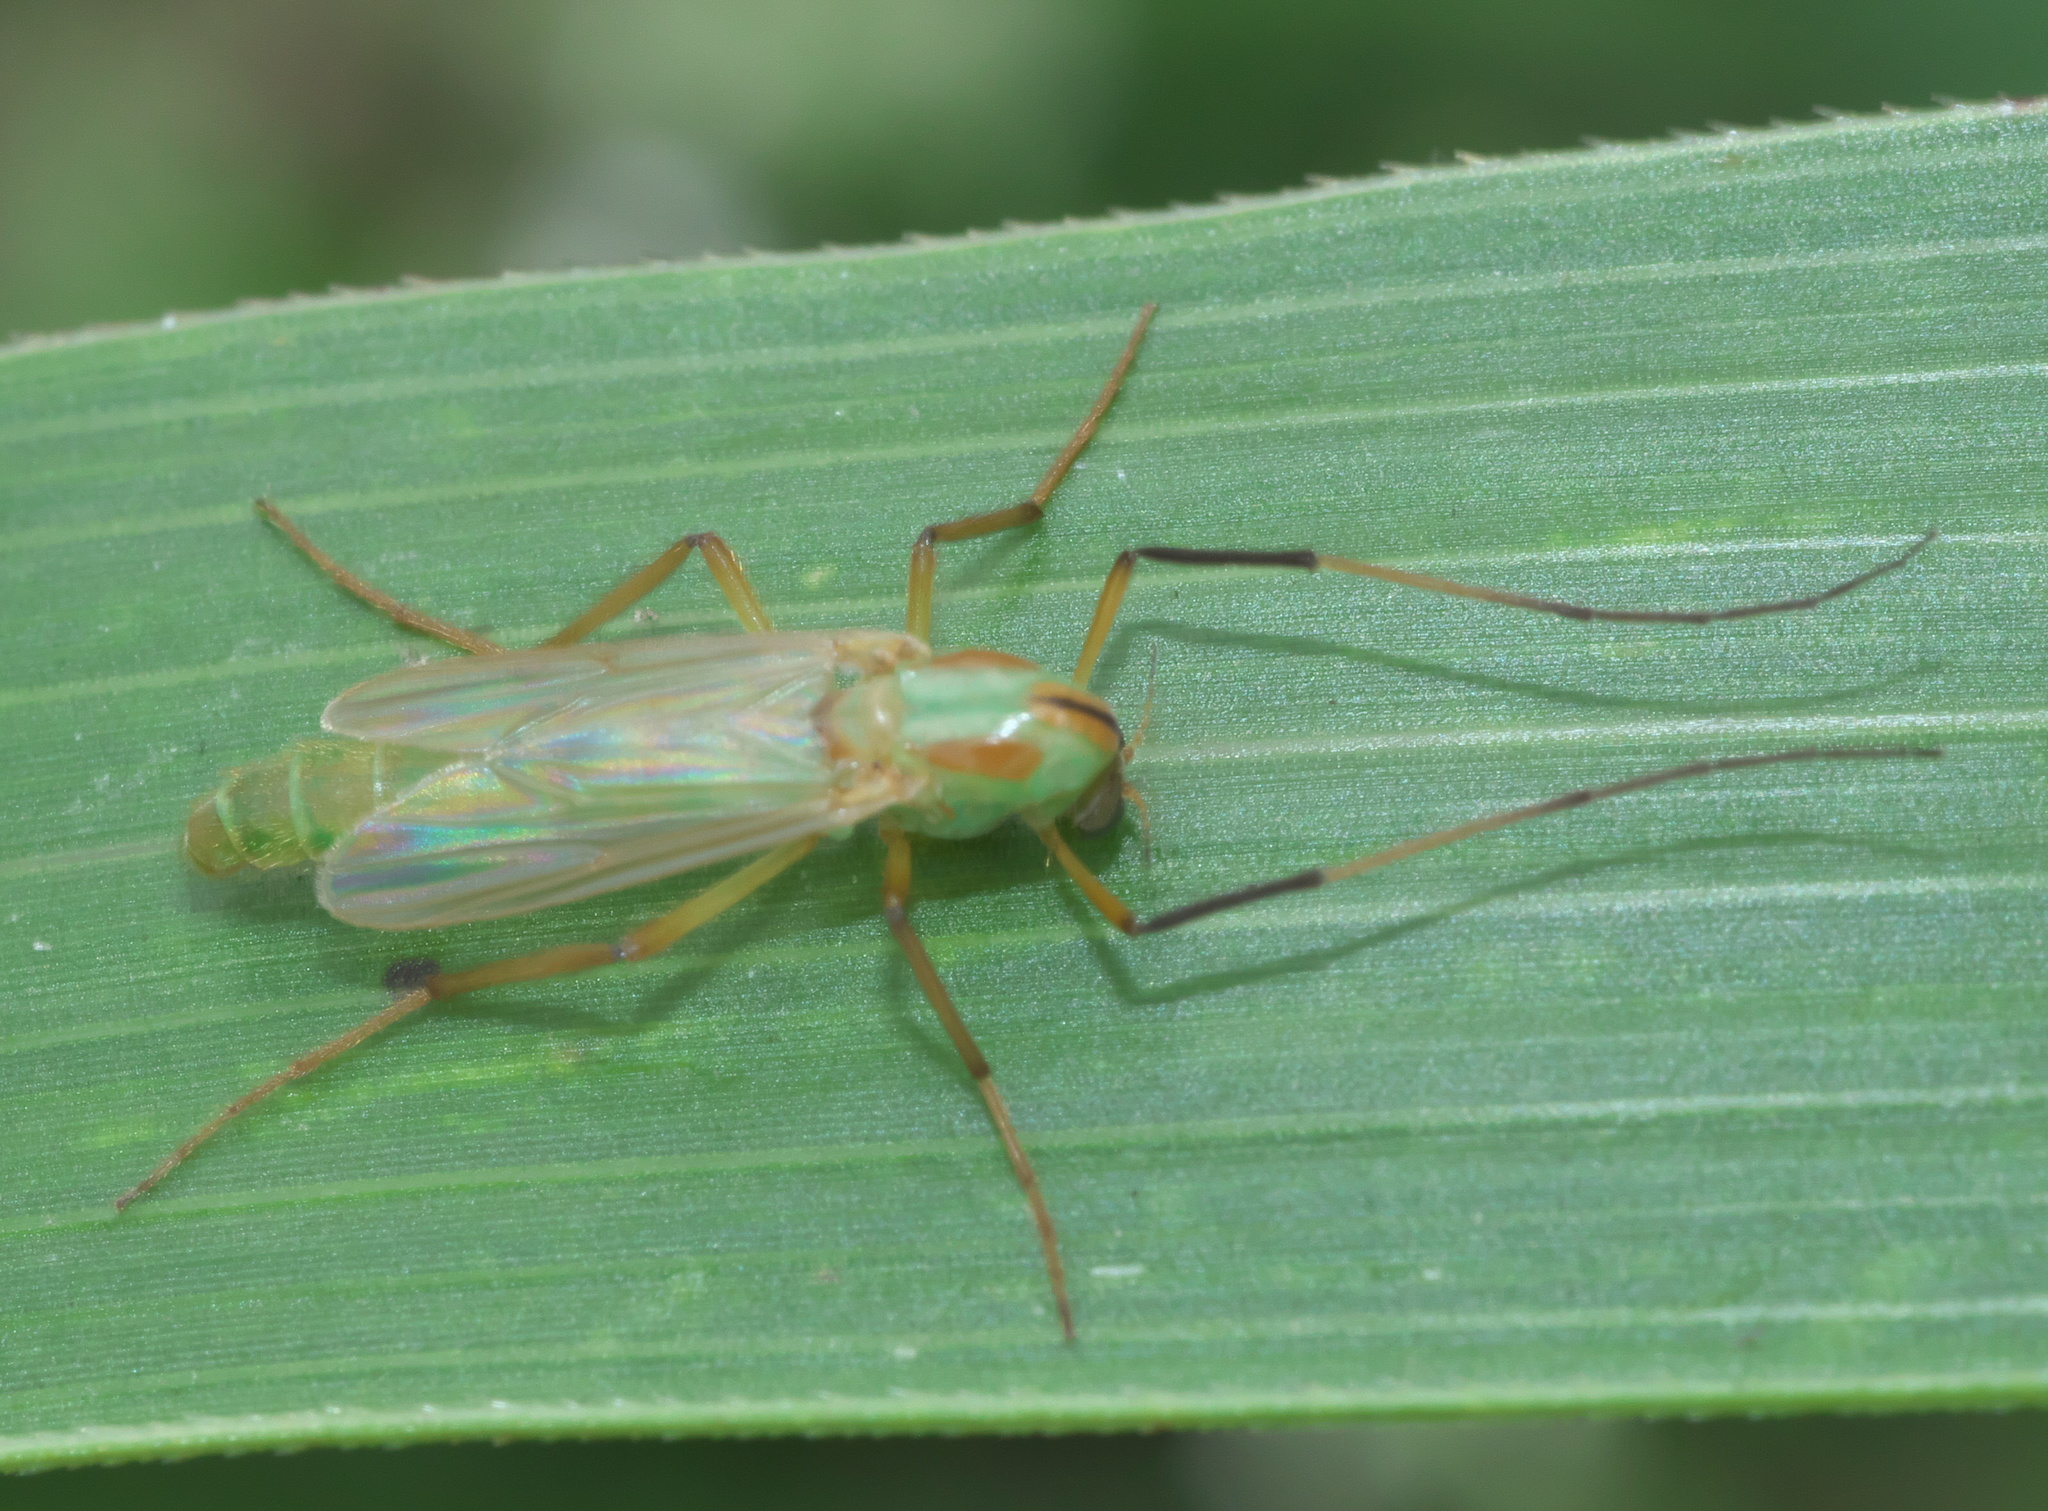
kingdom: Animalia
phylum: Arthropoda
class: Insecta
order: Diptera
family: Chironomidae
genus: Axarus
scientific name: Axarus
